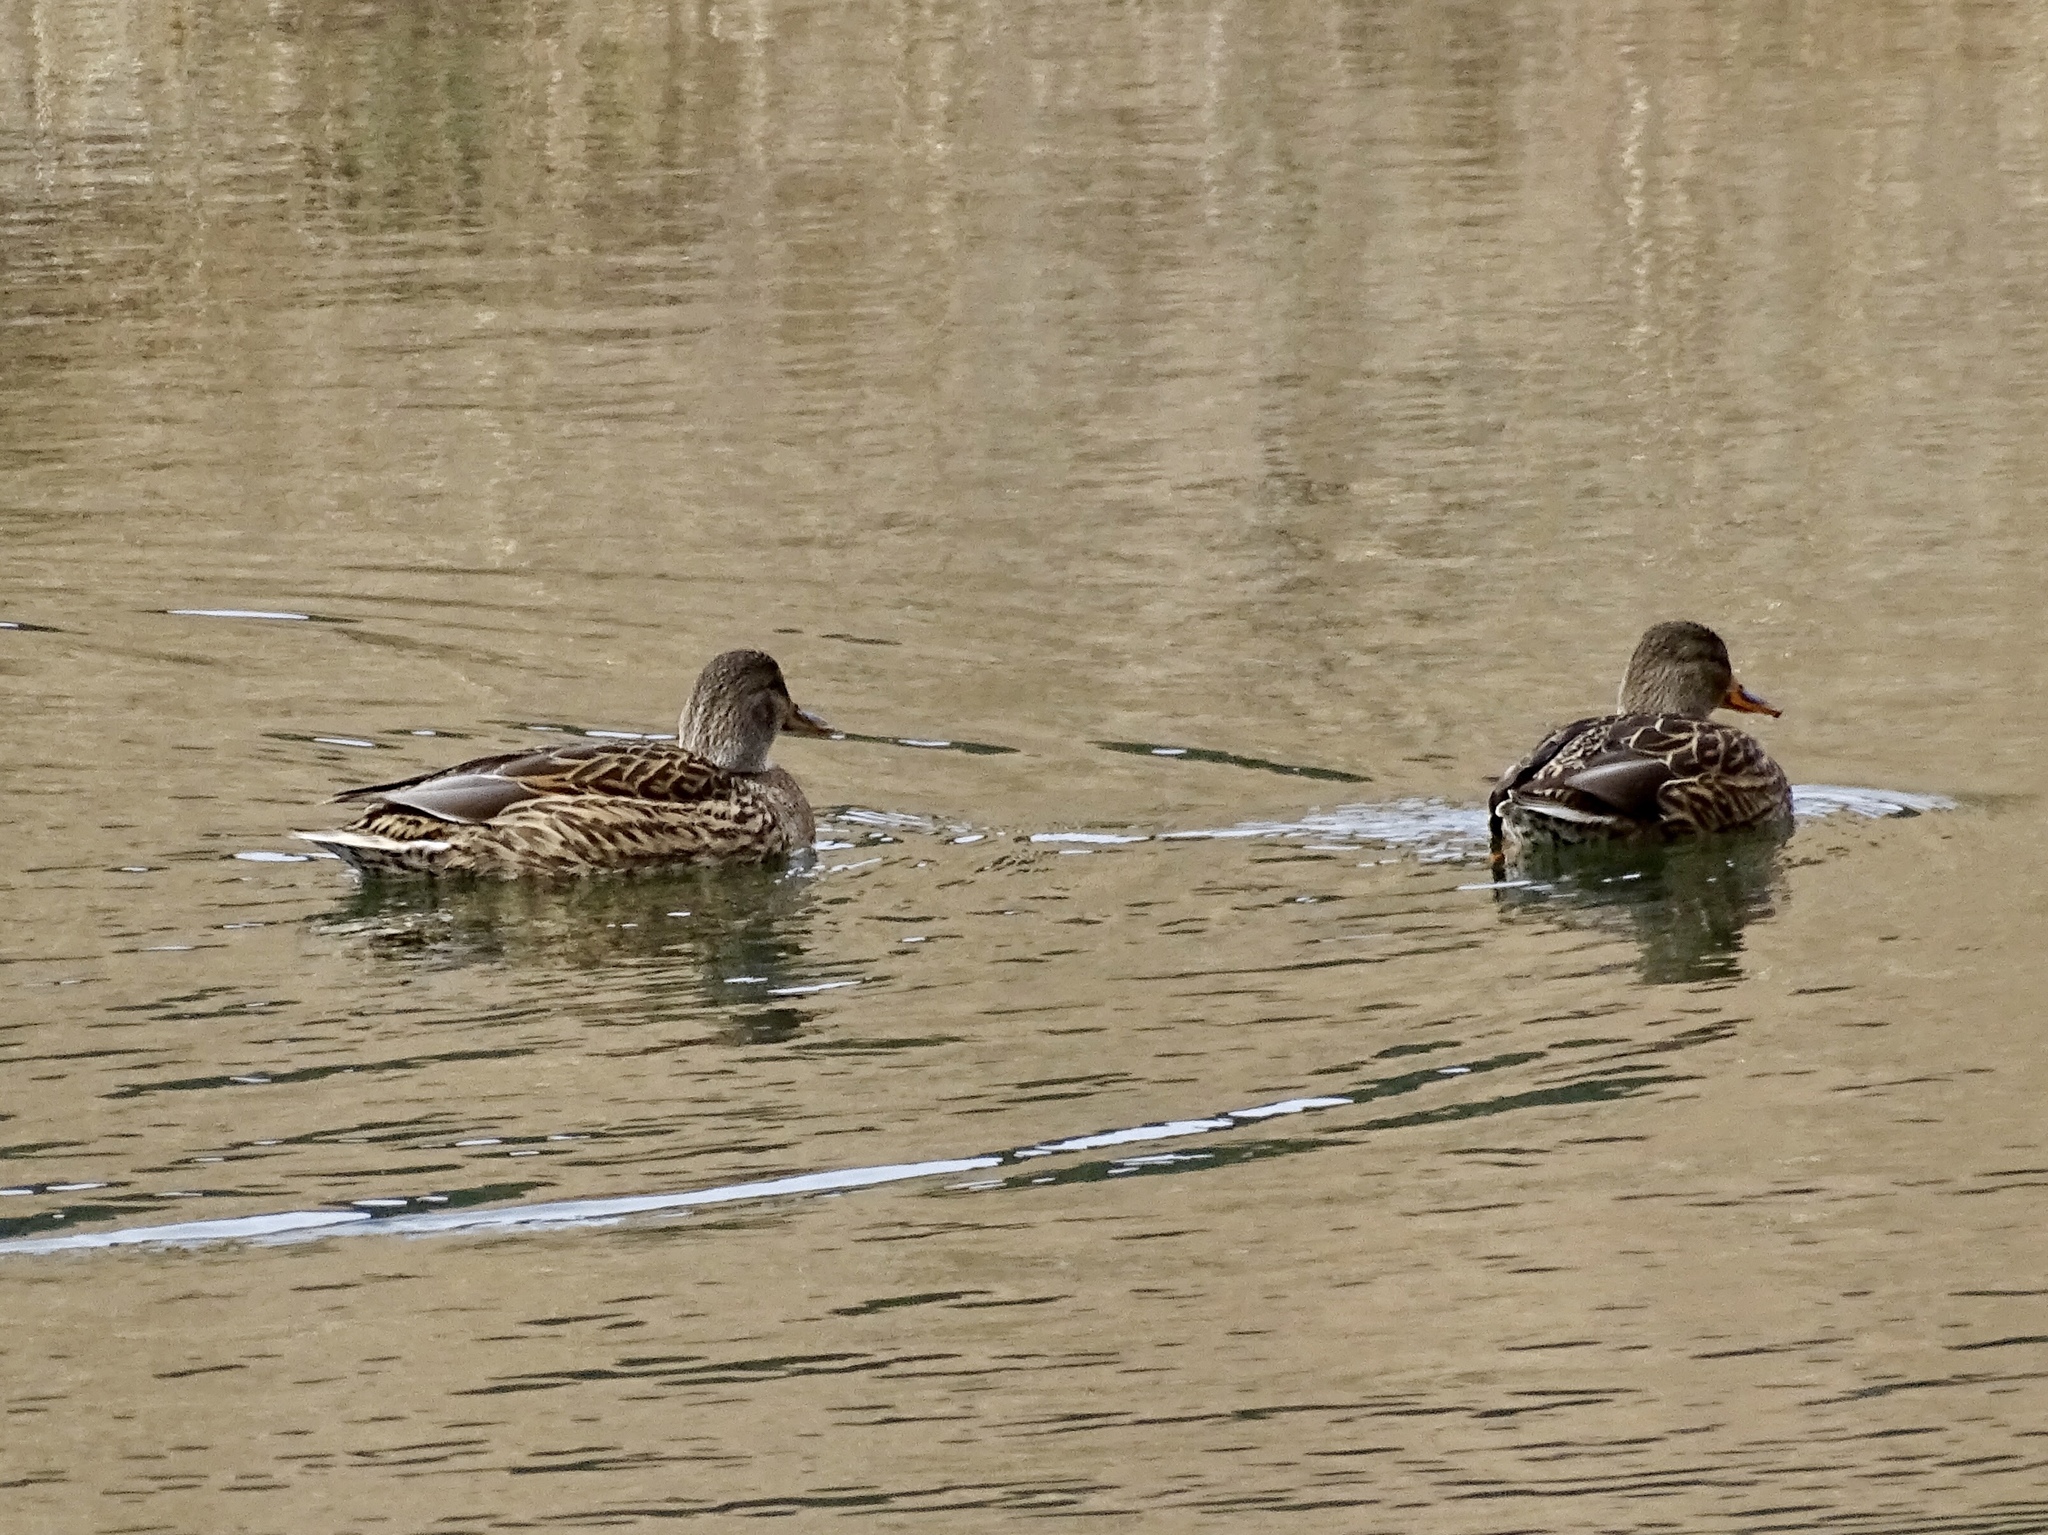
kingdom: Animalia
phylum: Chordata
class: Aves
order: Anseriformes
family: Anatidae
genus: Anas
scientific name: Anas platyrhynchos
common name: Mallard
